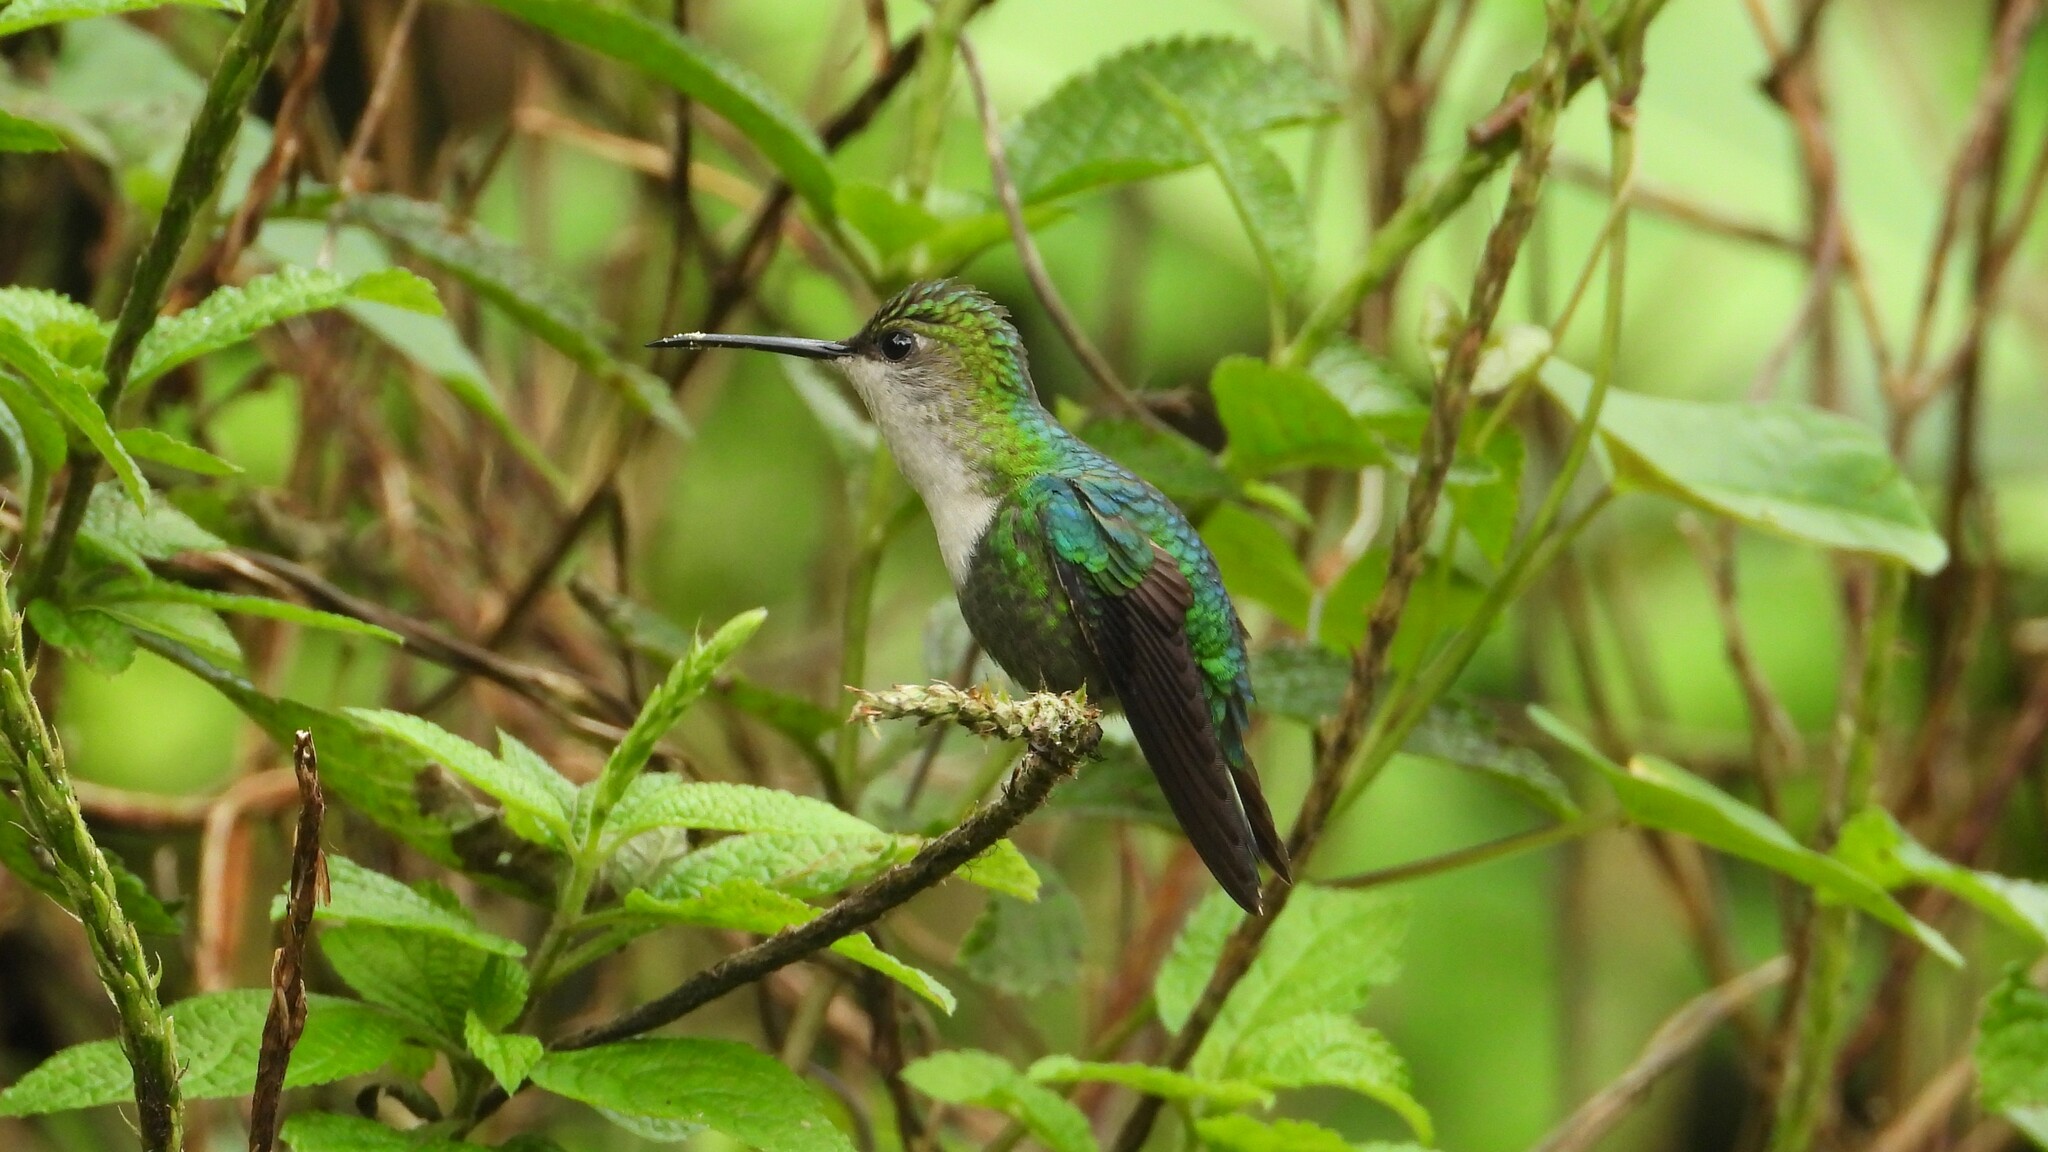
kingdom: Animalia
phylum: Chordata
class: Aves
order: Apodiformes
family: Trochilidae
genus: Thalurania
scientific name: Thalurania colombica
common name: Crowned woodnymph
